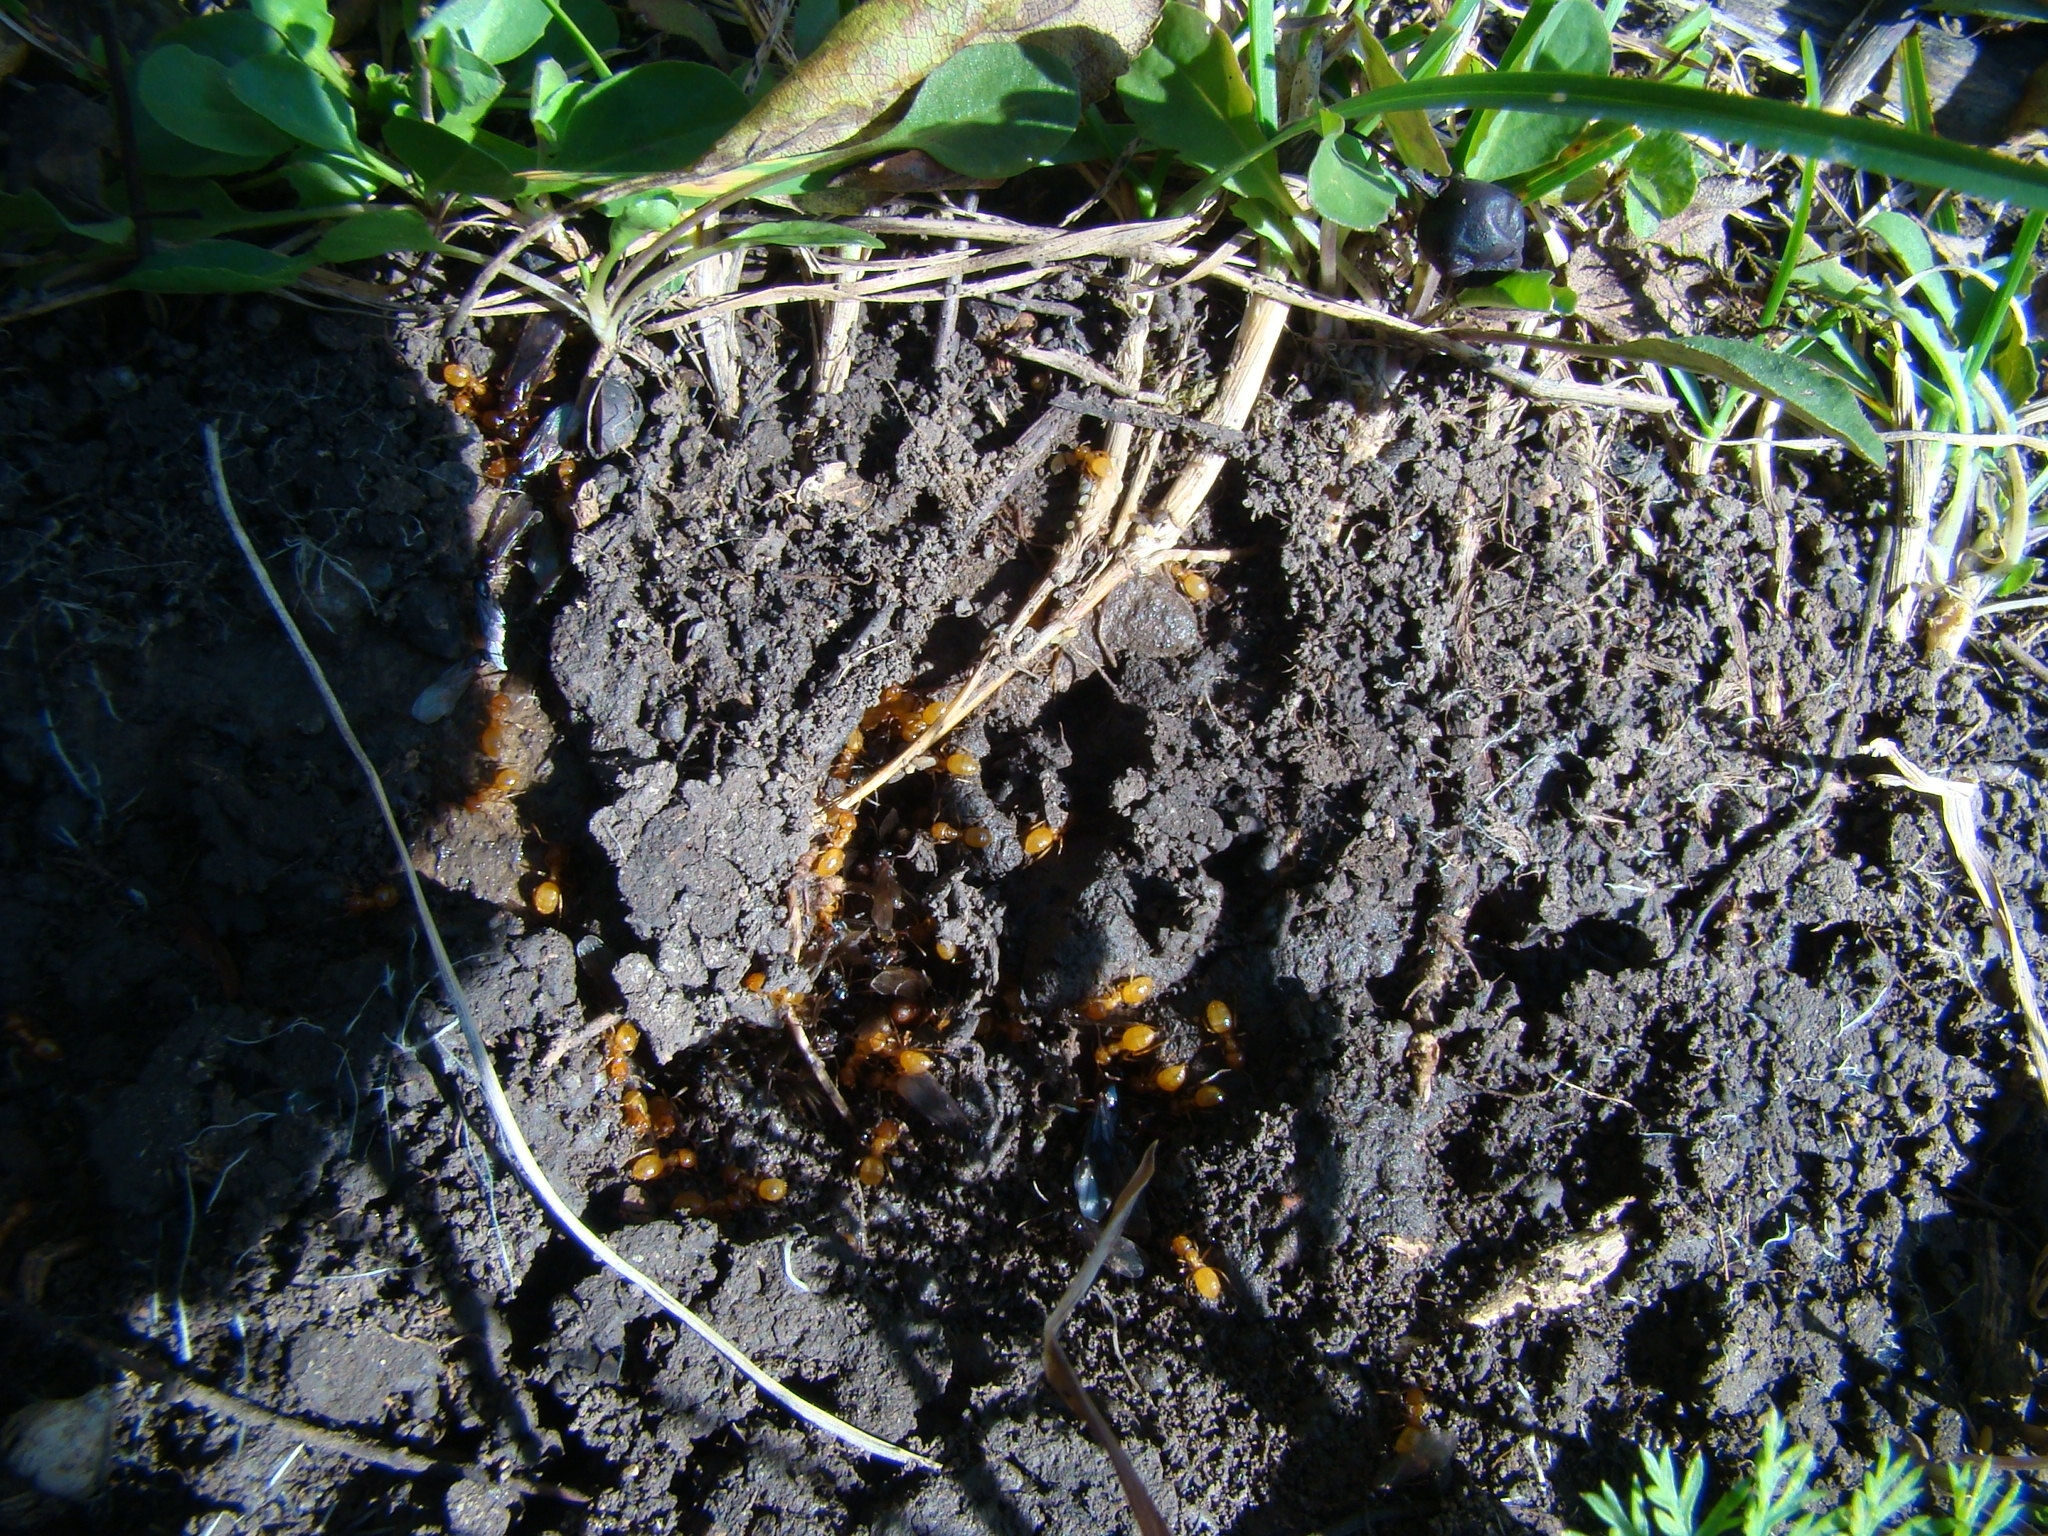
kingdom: Animalia
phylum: Arthropoda
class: Insecta
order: Hymenoptera
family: Formicidae
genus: Acanthomyops
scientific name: Acanthomyops
